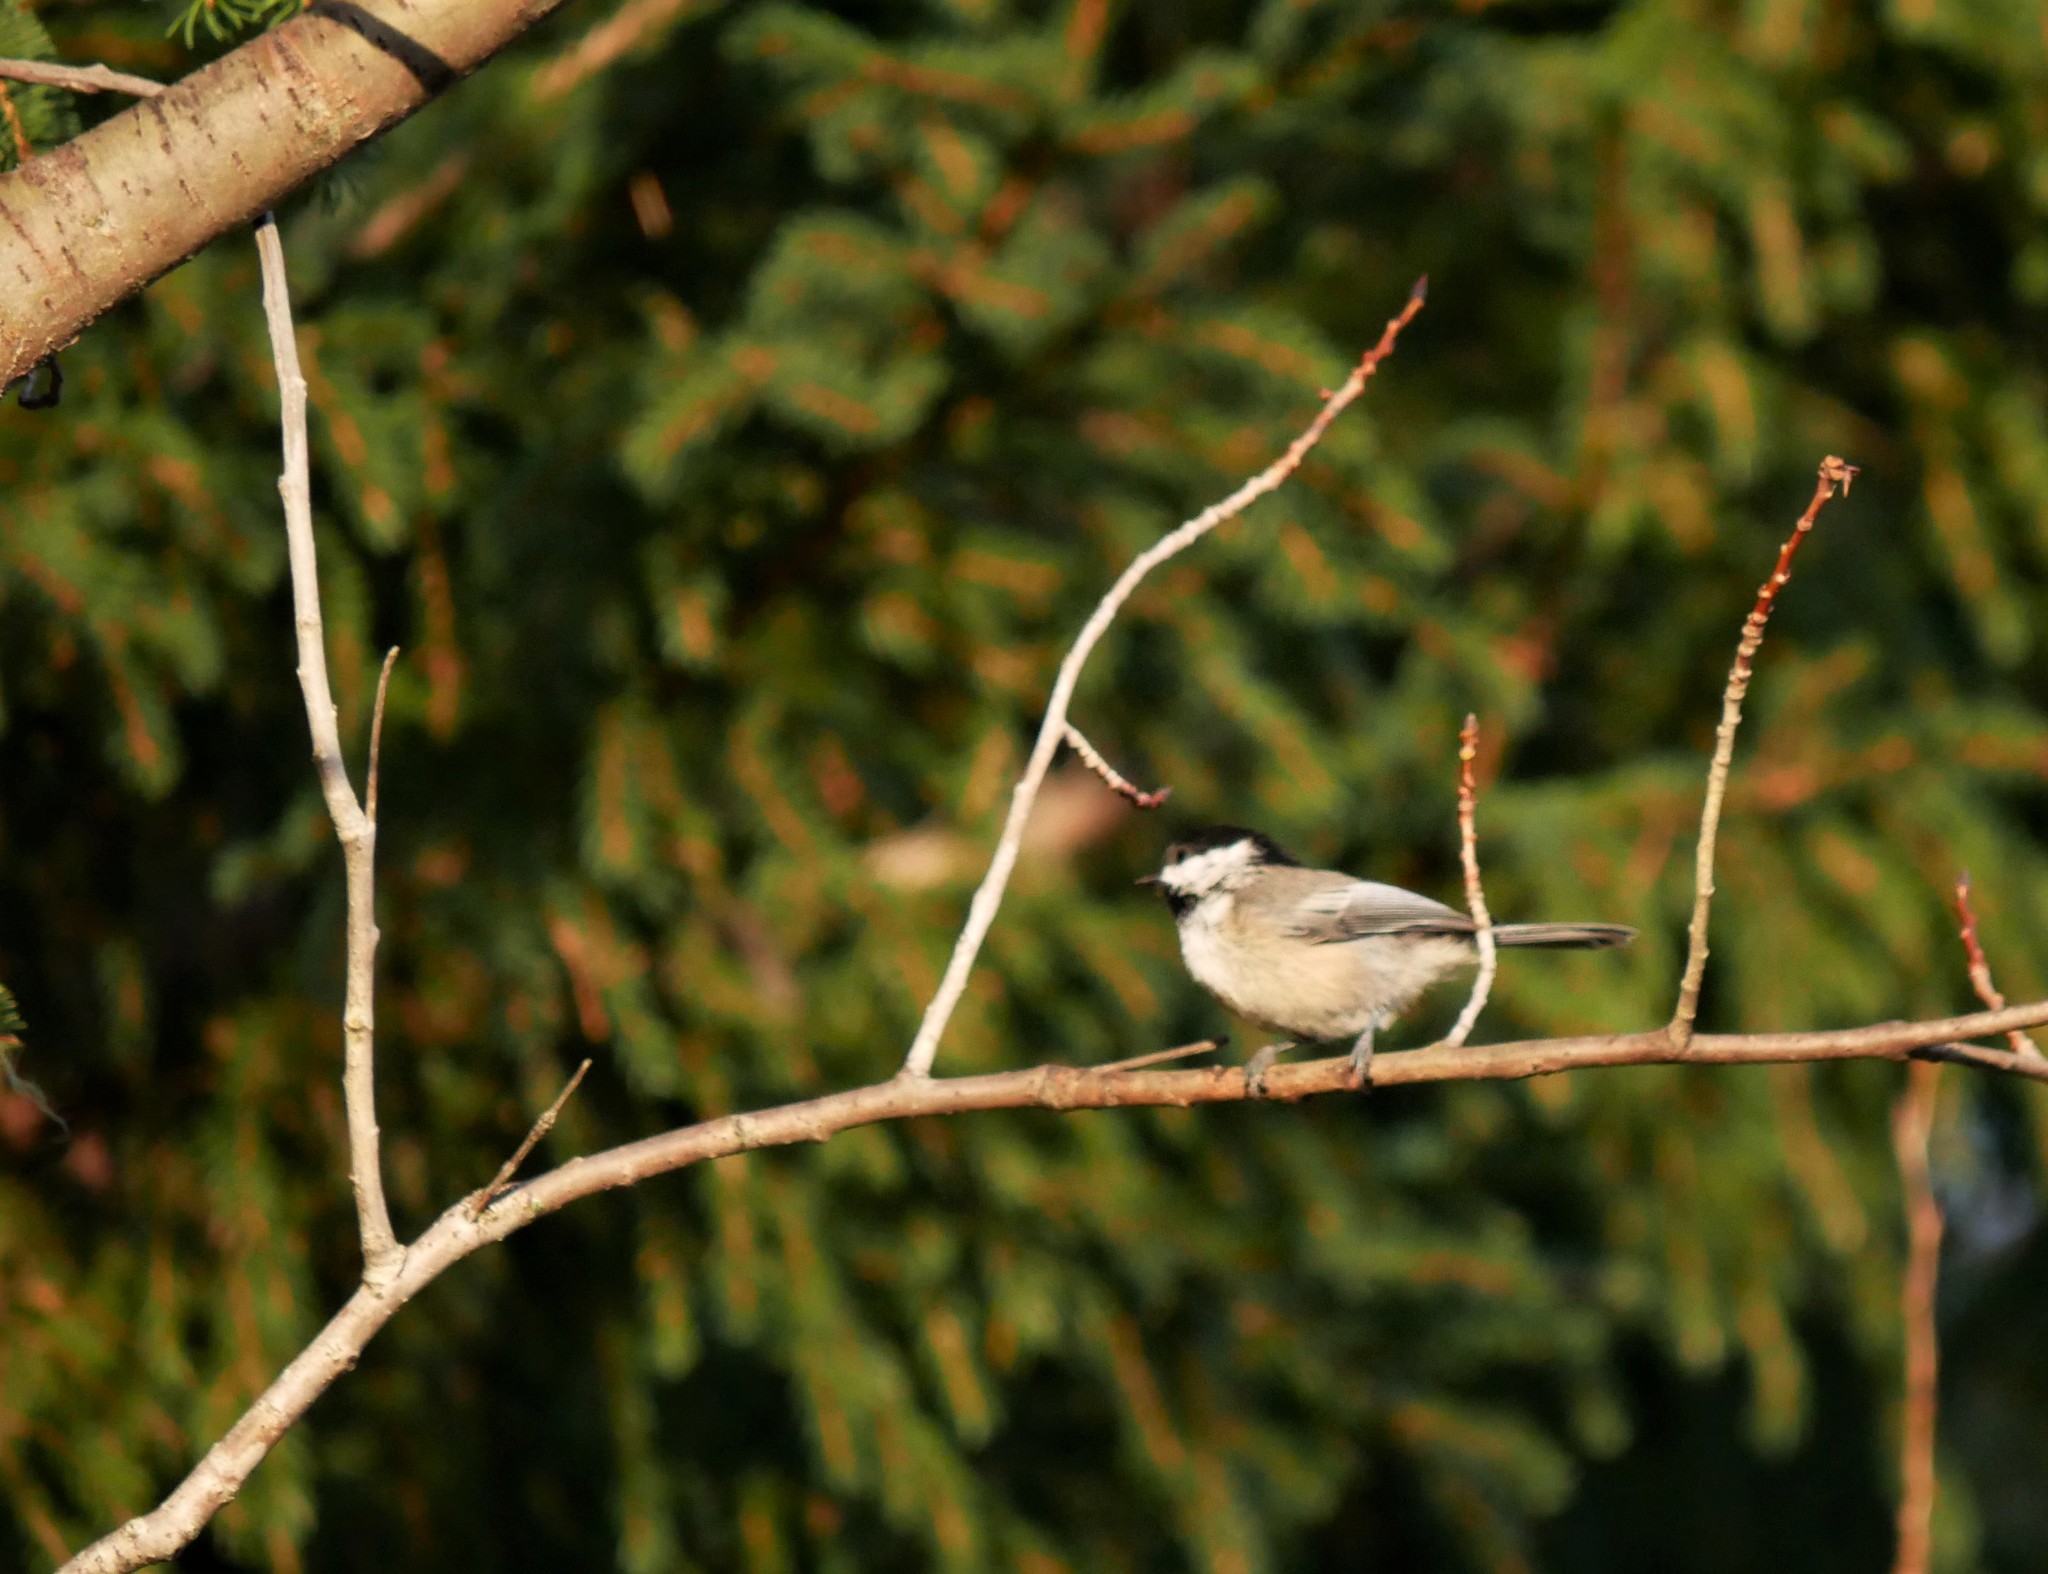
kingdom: Animalia
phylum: Chordata
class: Aves
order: Passeriformes
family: Paridae
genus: Poecile
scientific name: Poecile atricapillus
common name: Black-capped chickadee
